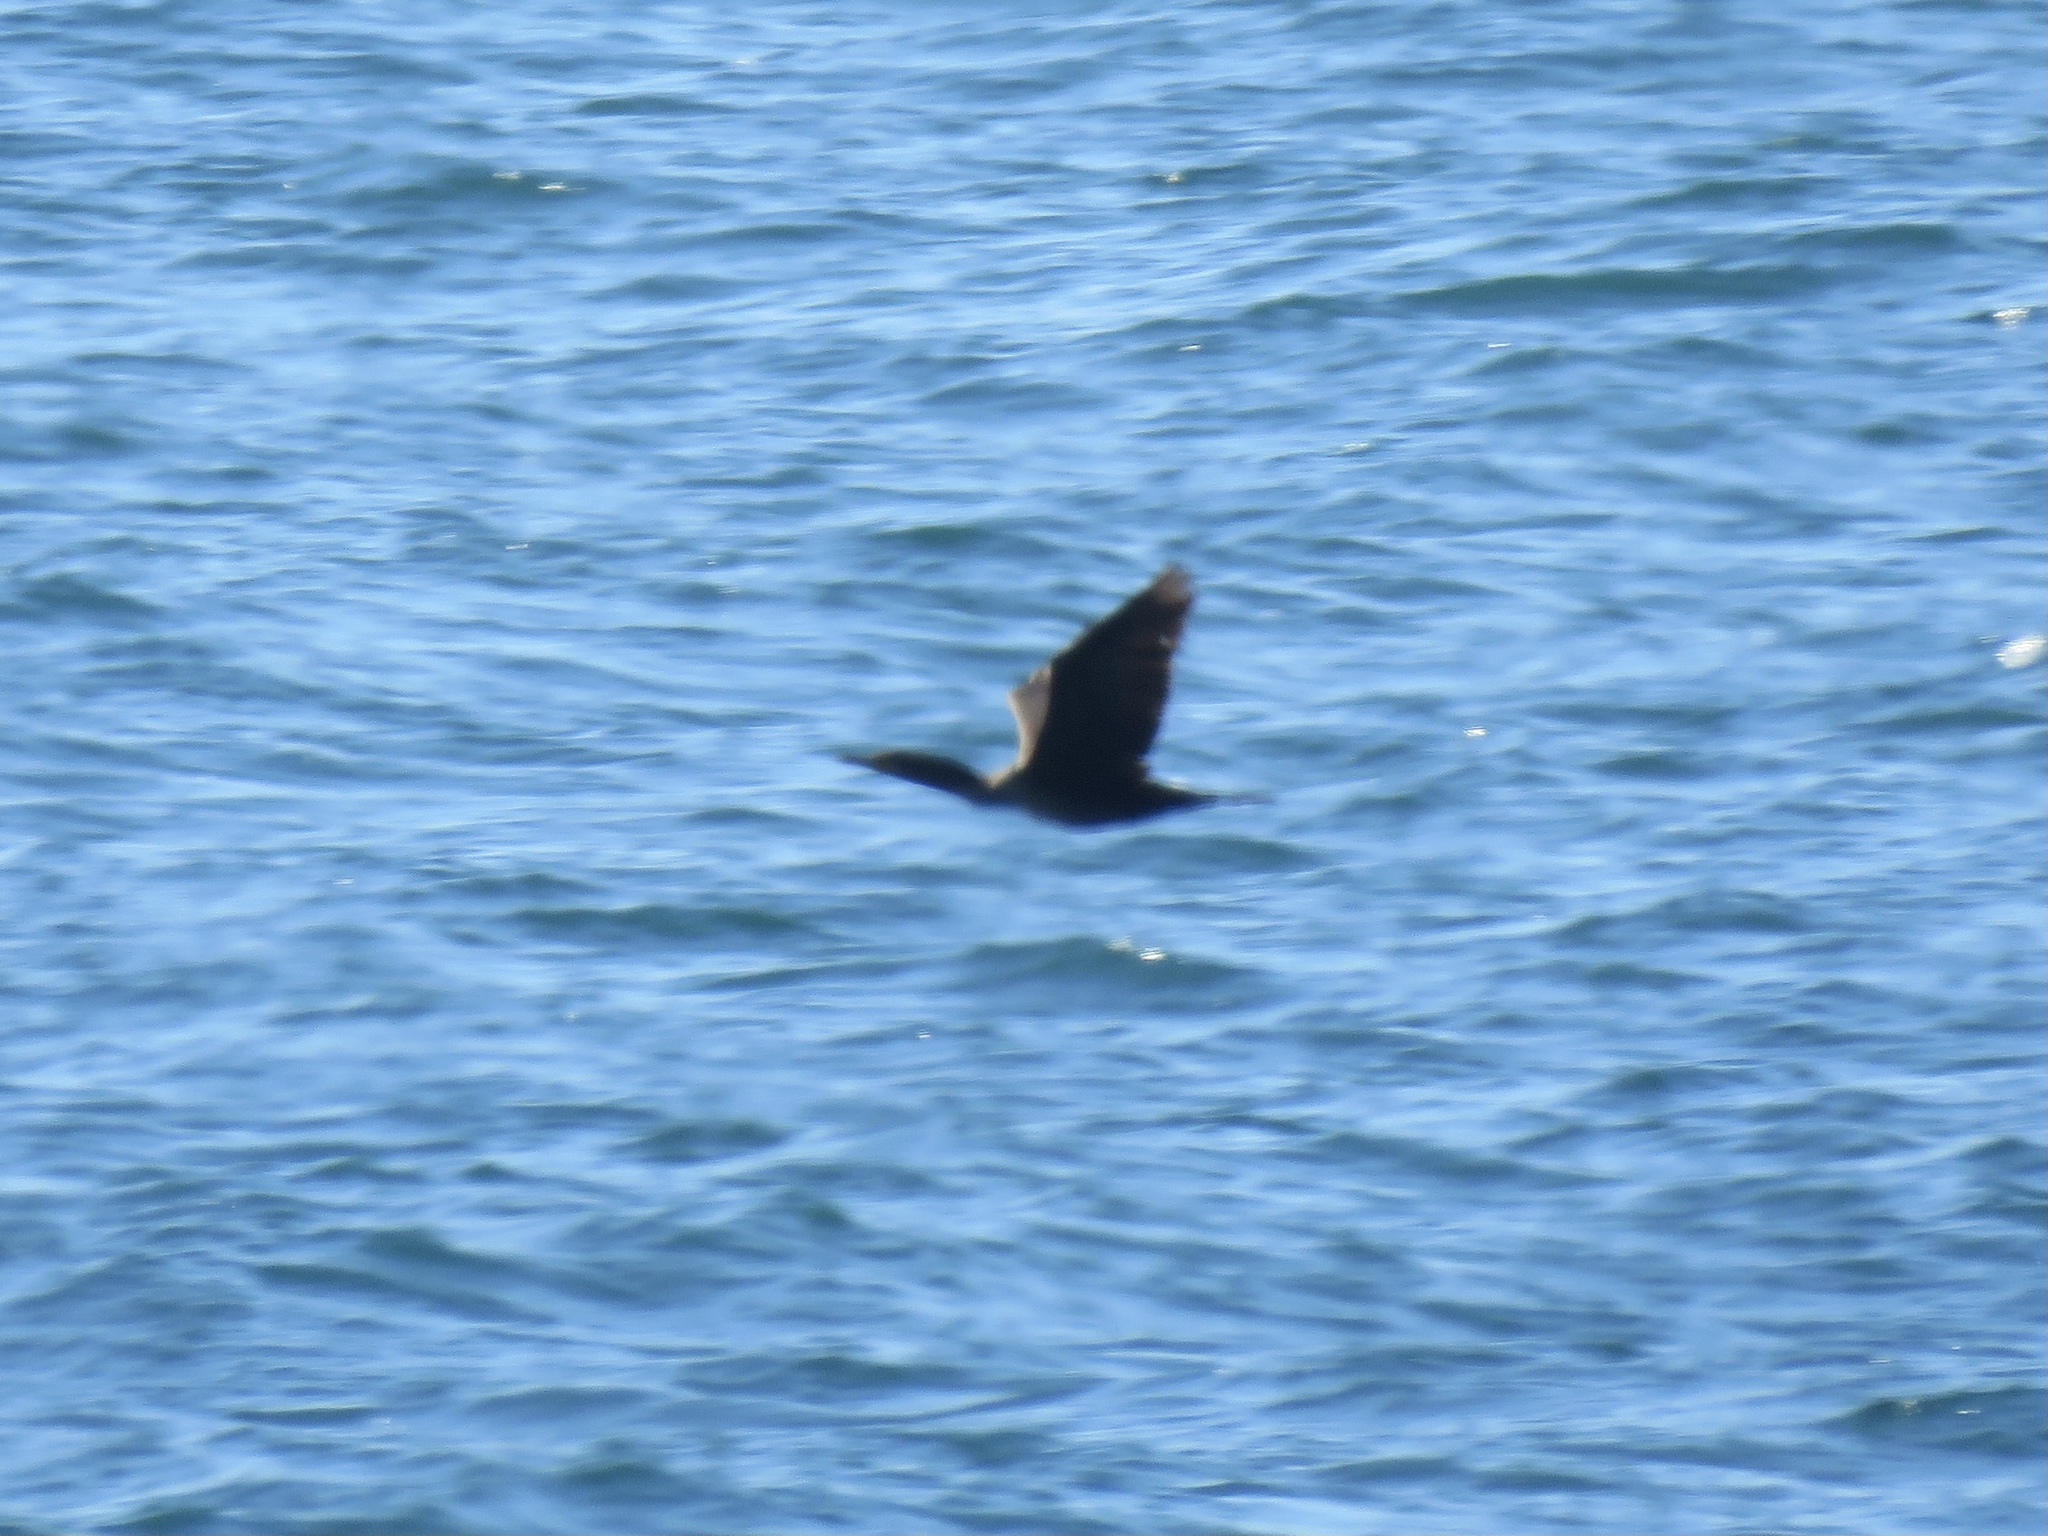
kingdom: Animalia
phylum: Chordata
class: Aves
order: Suliformes
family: Phalacrocoracidae
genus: Phalacrocorax
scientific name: Phalacrocorax auritus
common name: Double-crested cormorant
